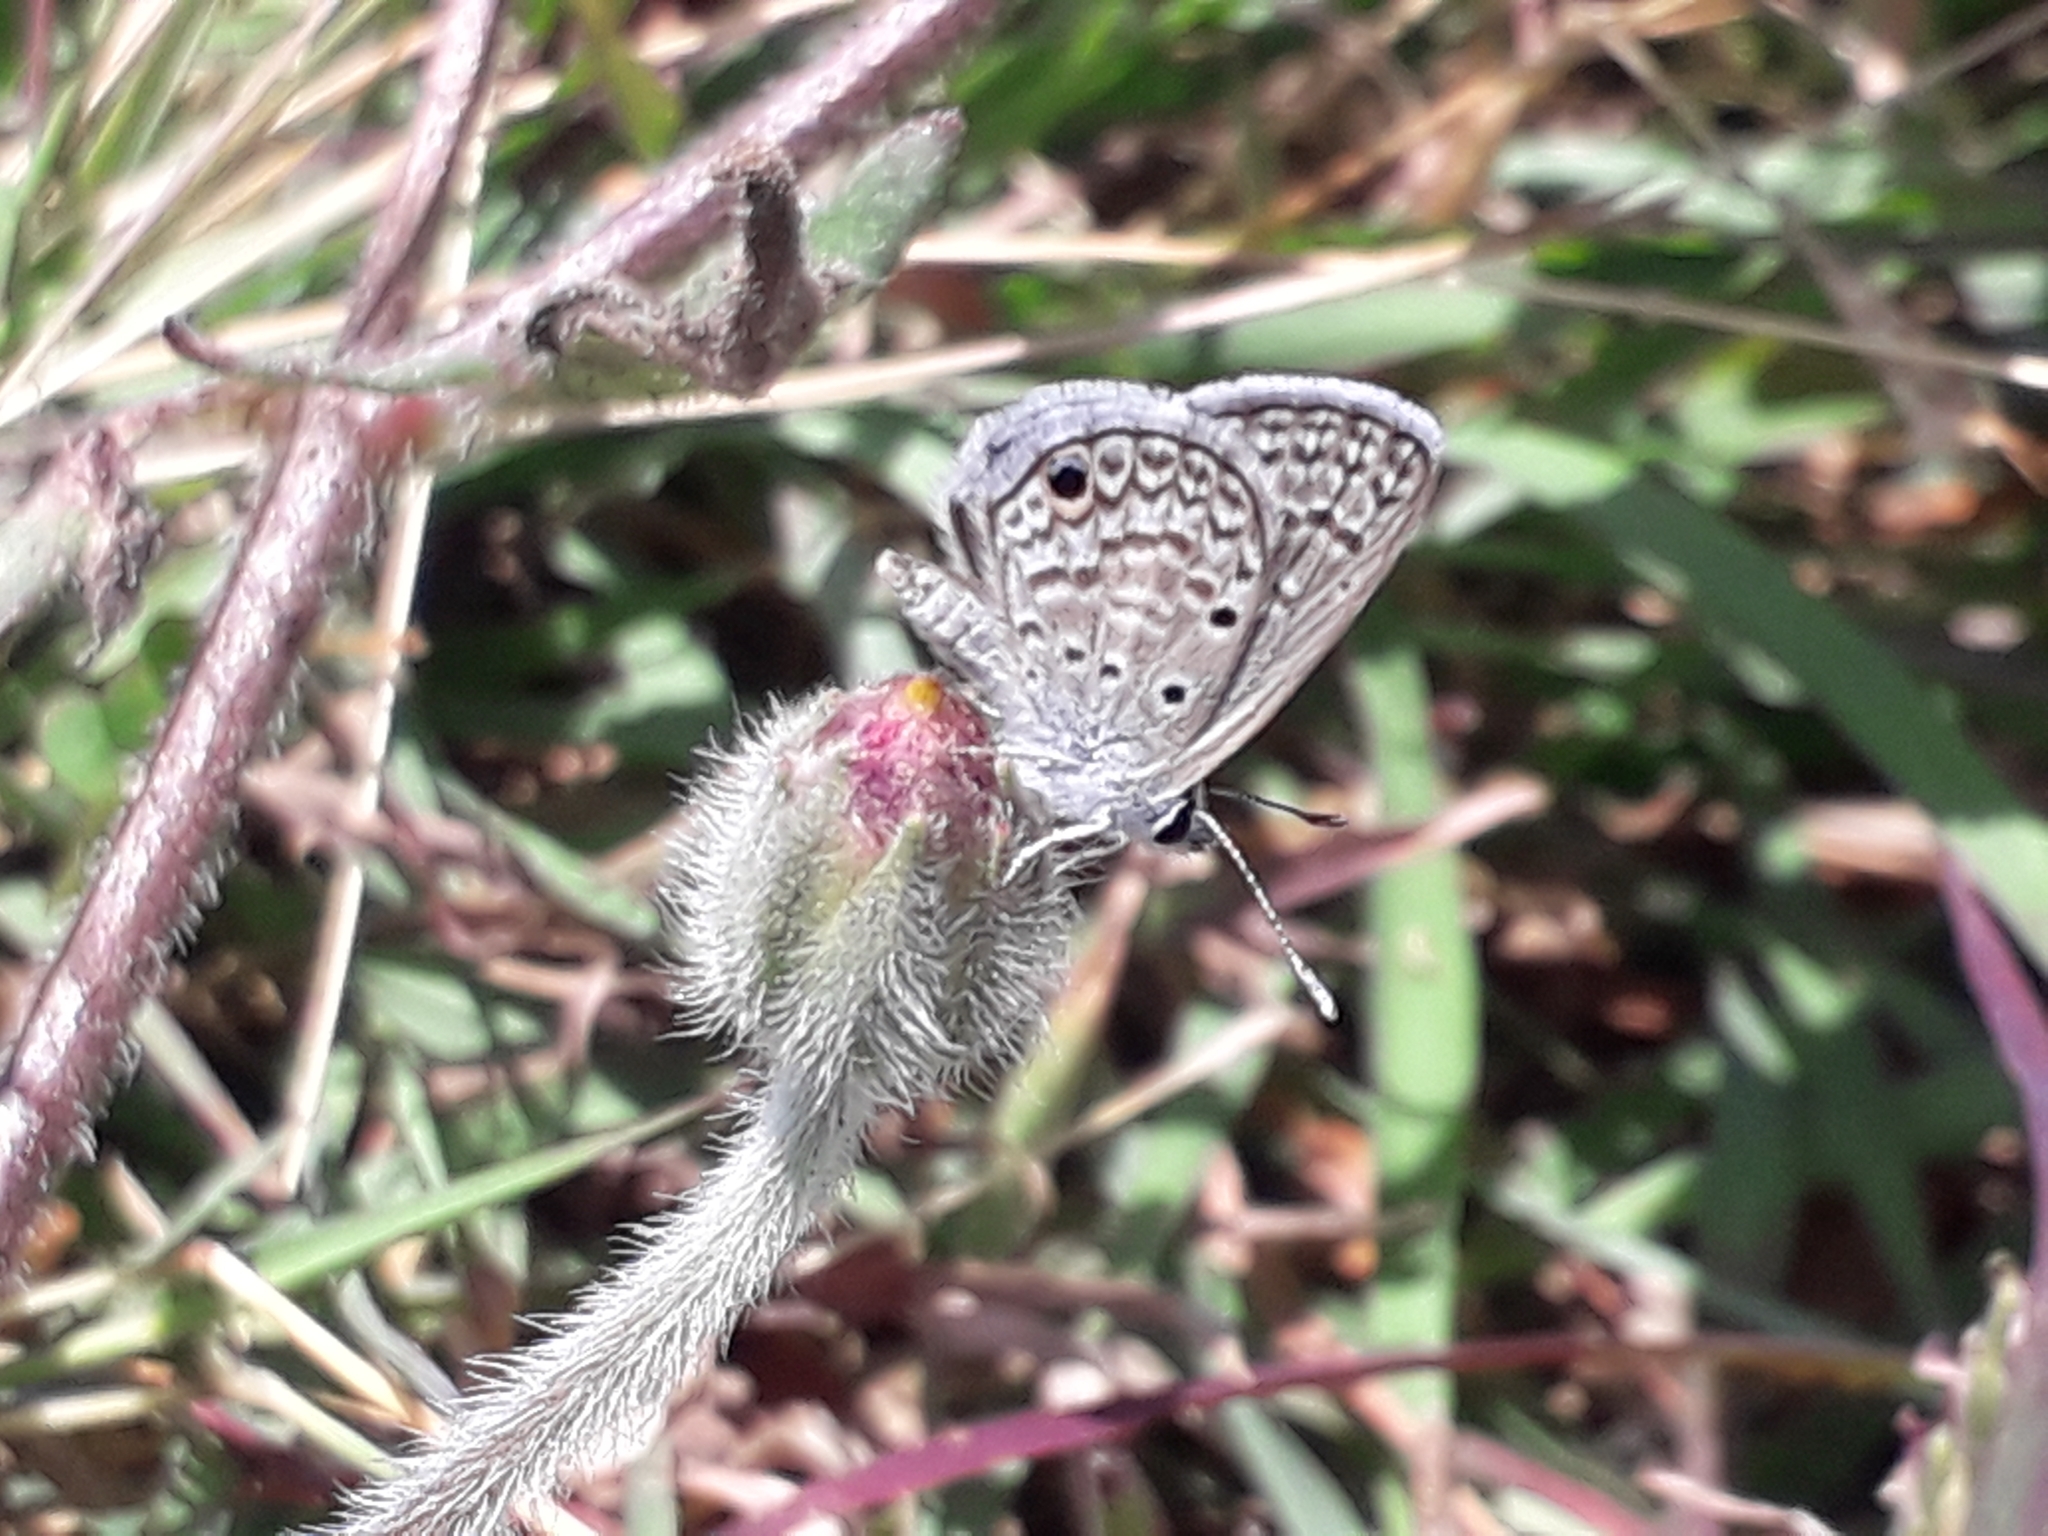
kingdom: Animalia
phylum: Arthropoda
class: Insecta
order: Lepidoptera
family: Lycaenidae
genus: Hemiargus
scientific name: Hemiargus hanno
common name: Common blue
